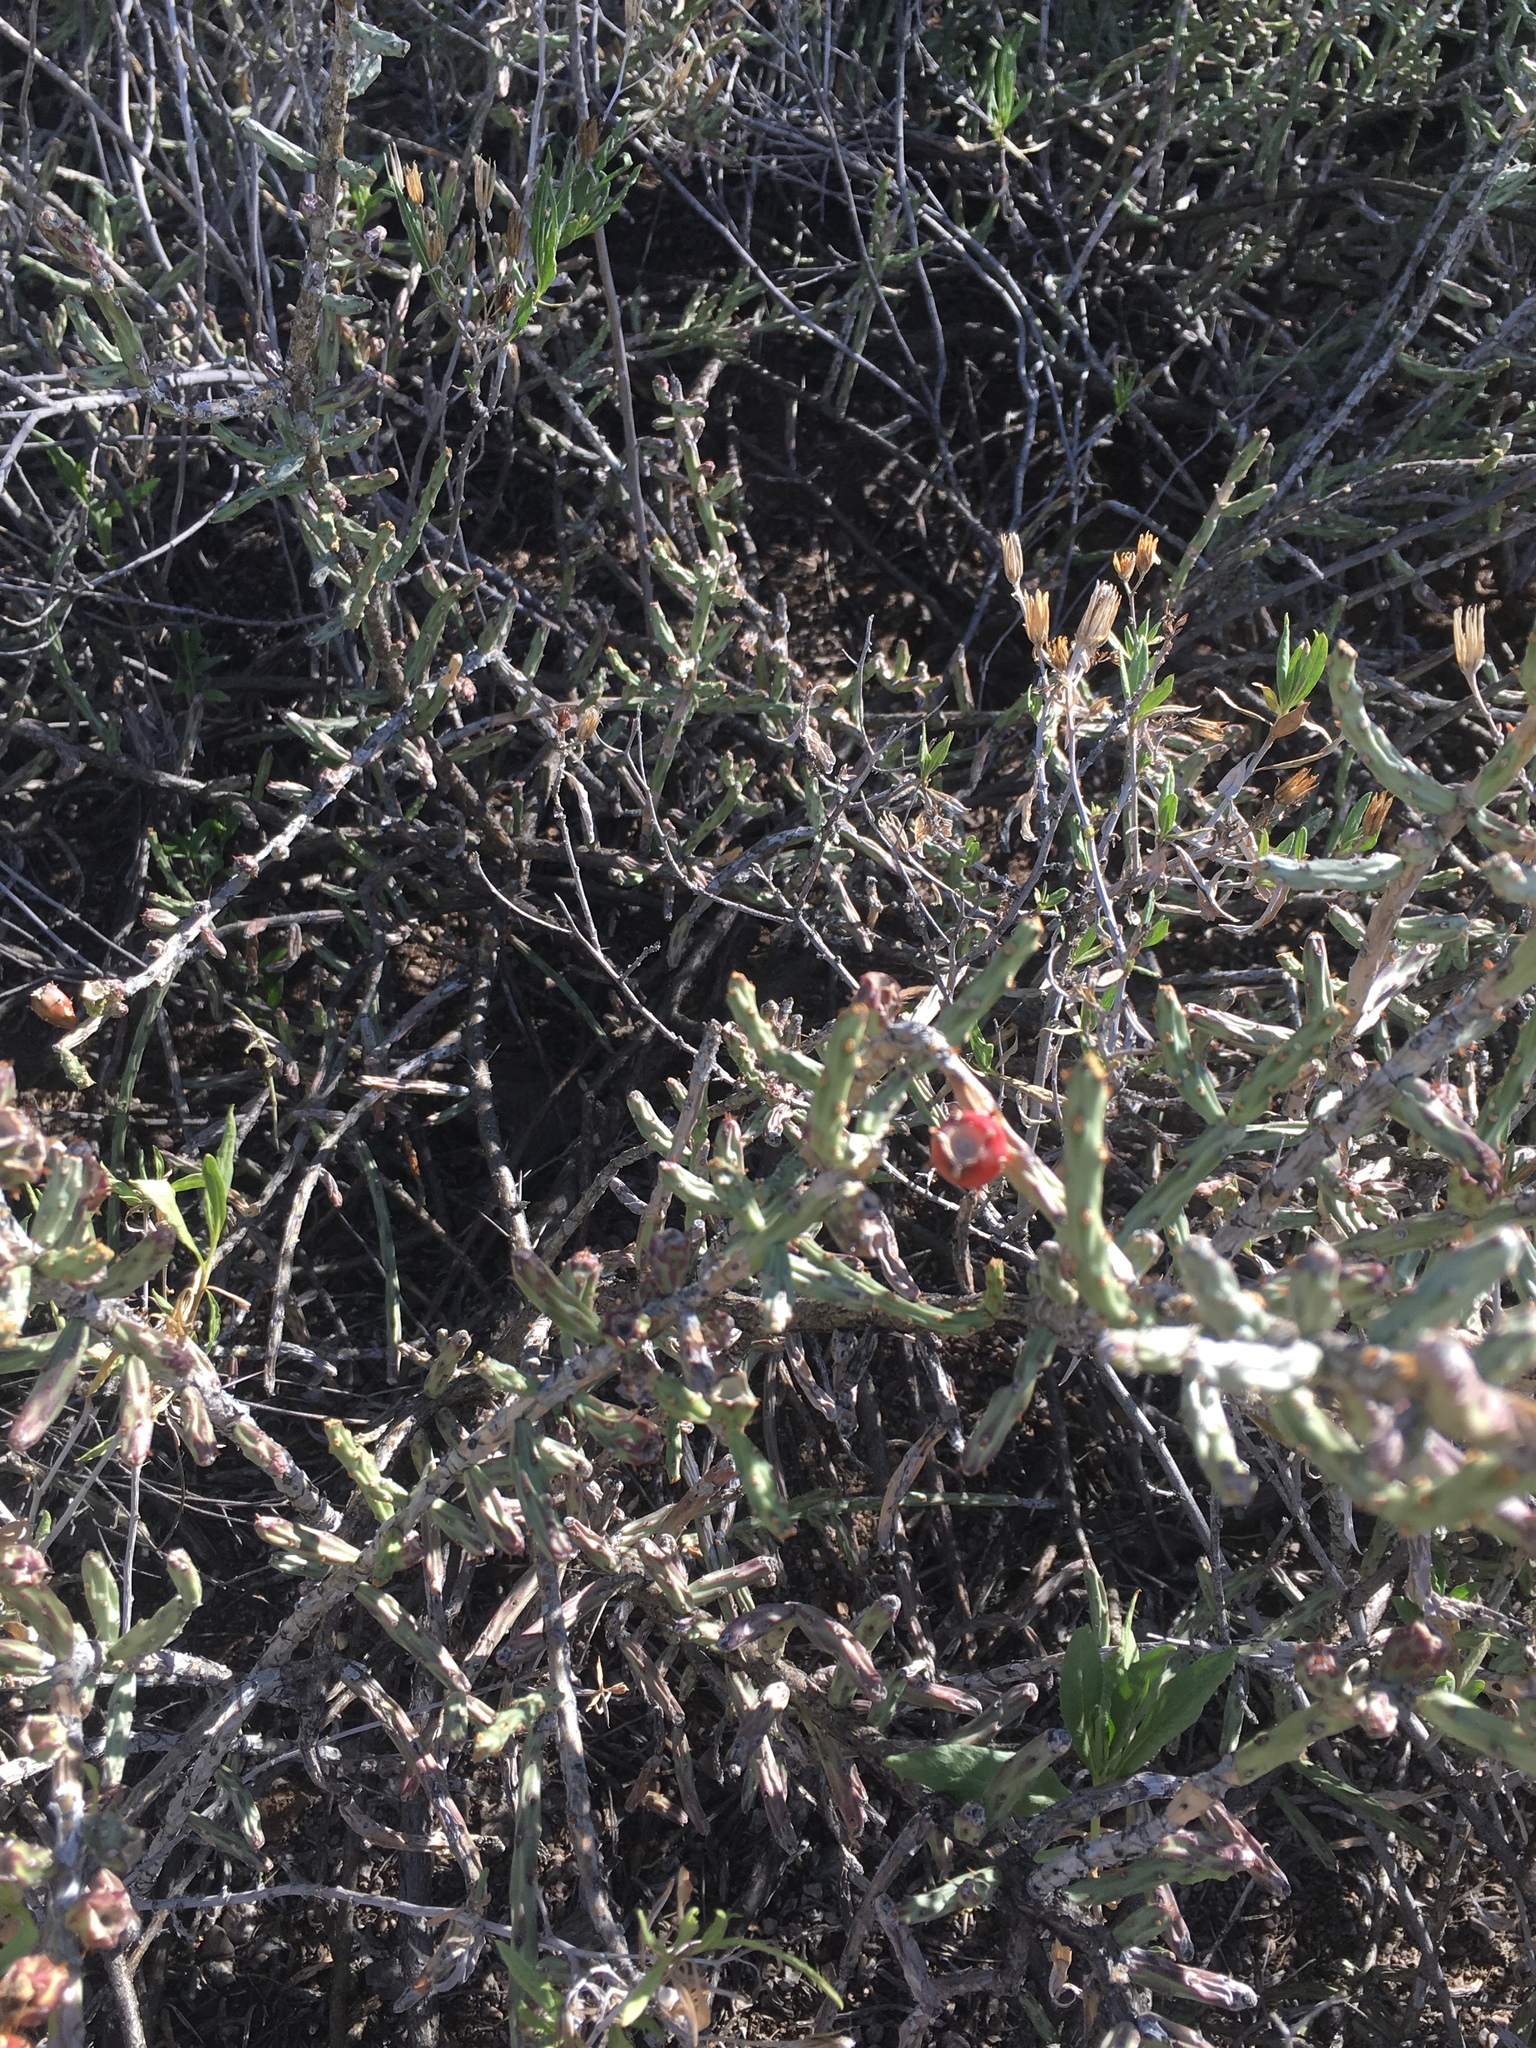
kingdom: Plantae
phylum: Tracheophyta
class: Magnoliopsida
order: Caryophyllales
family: Cactaceae
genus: Cylindropuntia
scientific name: Cylindropuntia leptocaulis
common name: Christmas cactus
